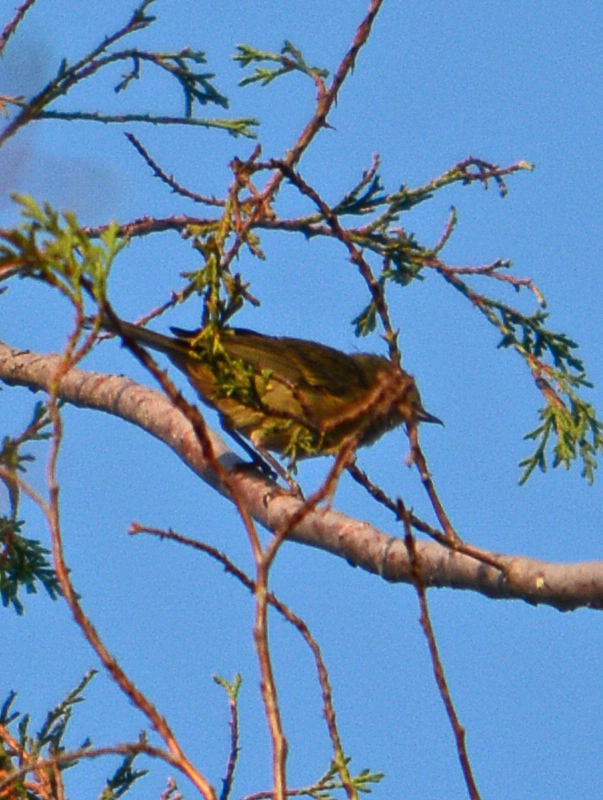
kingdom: Animalia
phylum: Chordata
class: Aves
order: Passeriformes
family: Thraupidae
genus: Diglossa
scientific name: Diglossa baritula
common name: Cinnamon-bellied flowerpiercer
